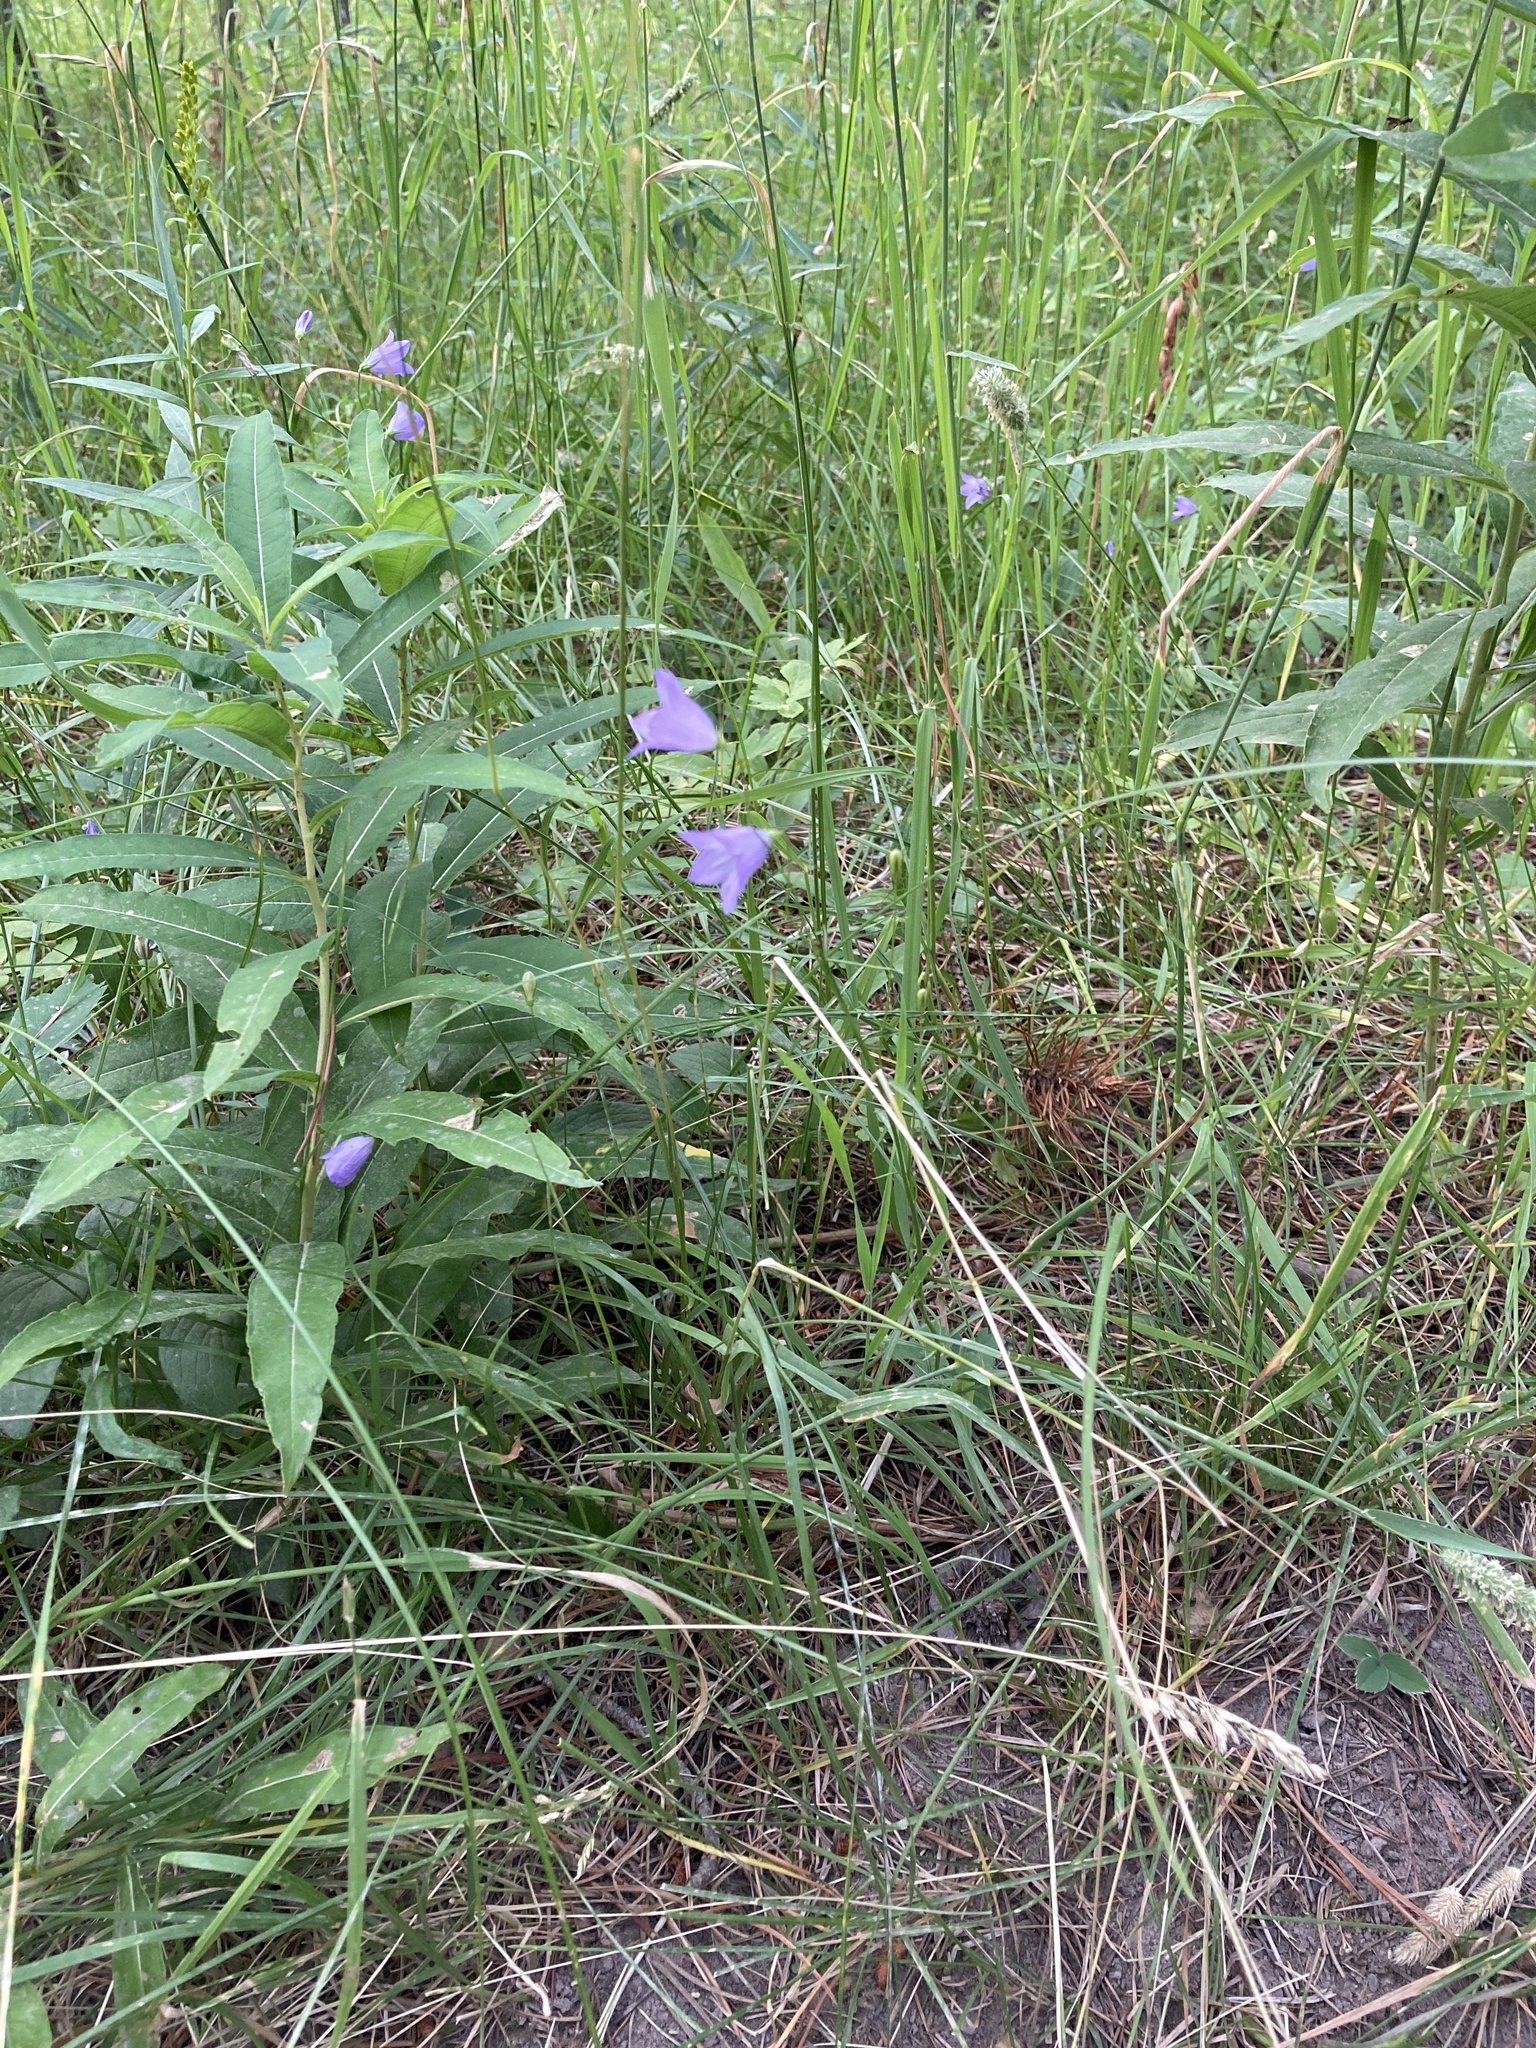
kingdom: Plantae
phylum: Tracheophyta
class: Magnoliopsida
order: Asterales
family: Campanulaceae
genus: Campanula
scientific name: Campanula
